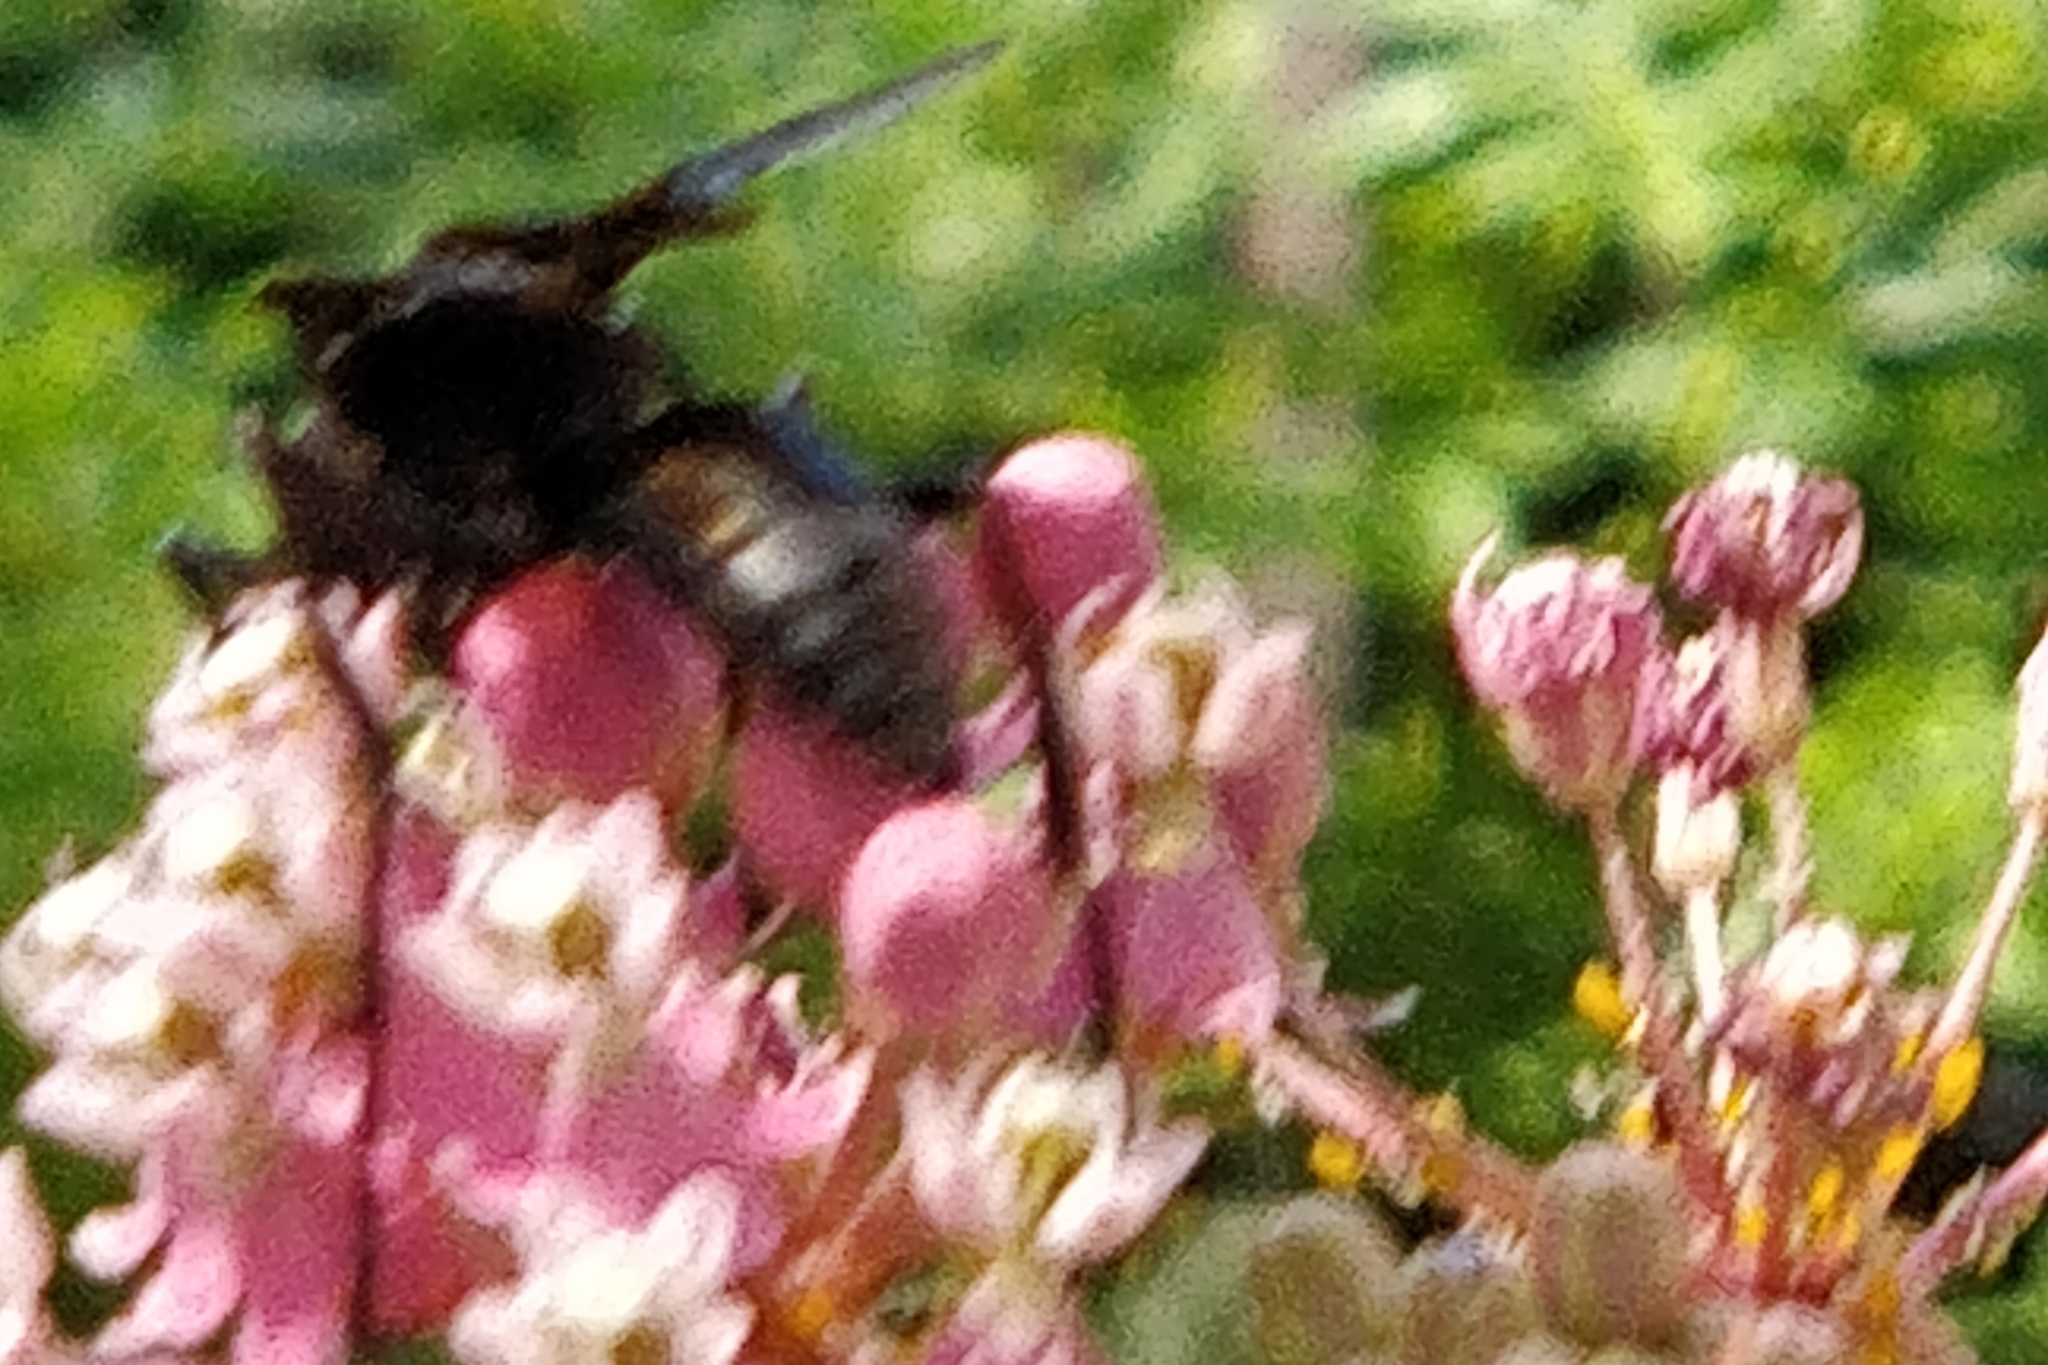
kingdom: Animalia
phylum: Arthropoda
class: Insecta
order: Hymenoptera
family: Sphecidae
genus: Sphex
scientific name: Sphex pensylvanicus
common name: Great black digger wasp
